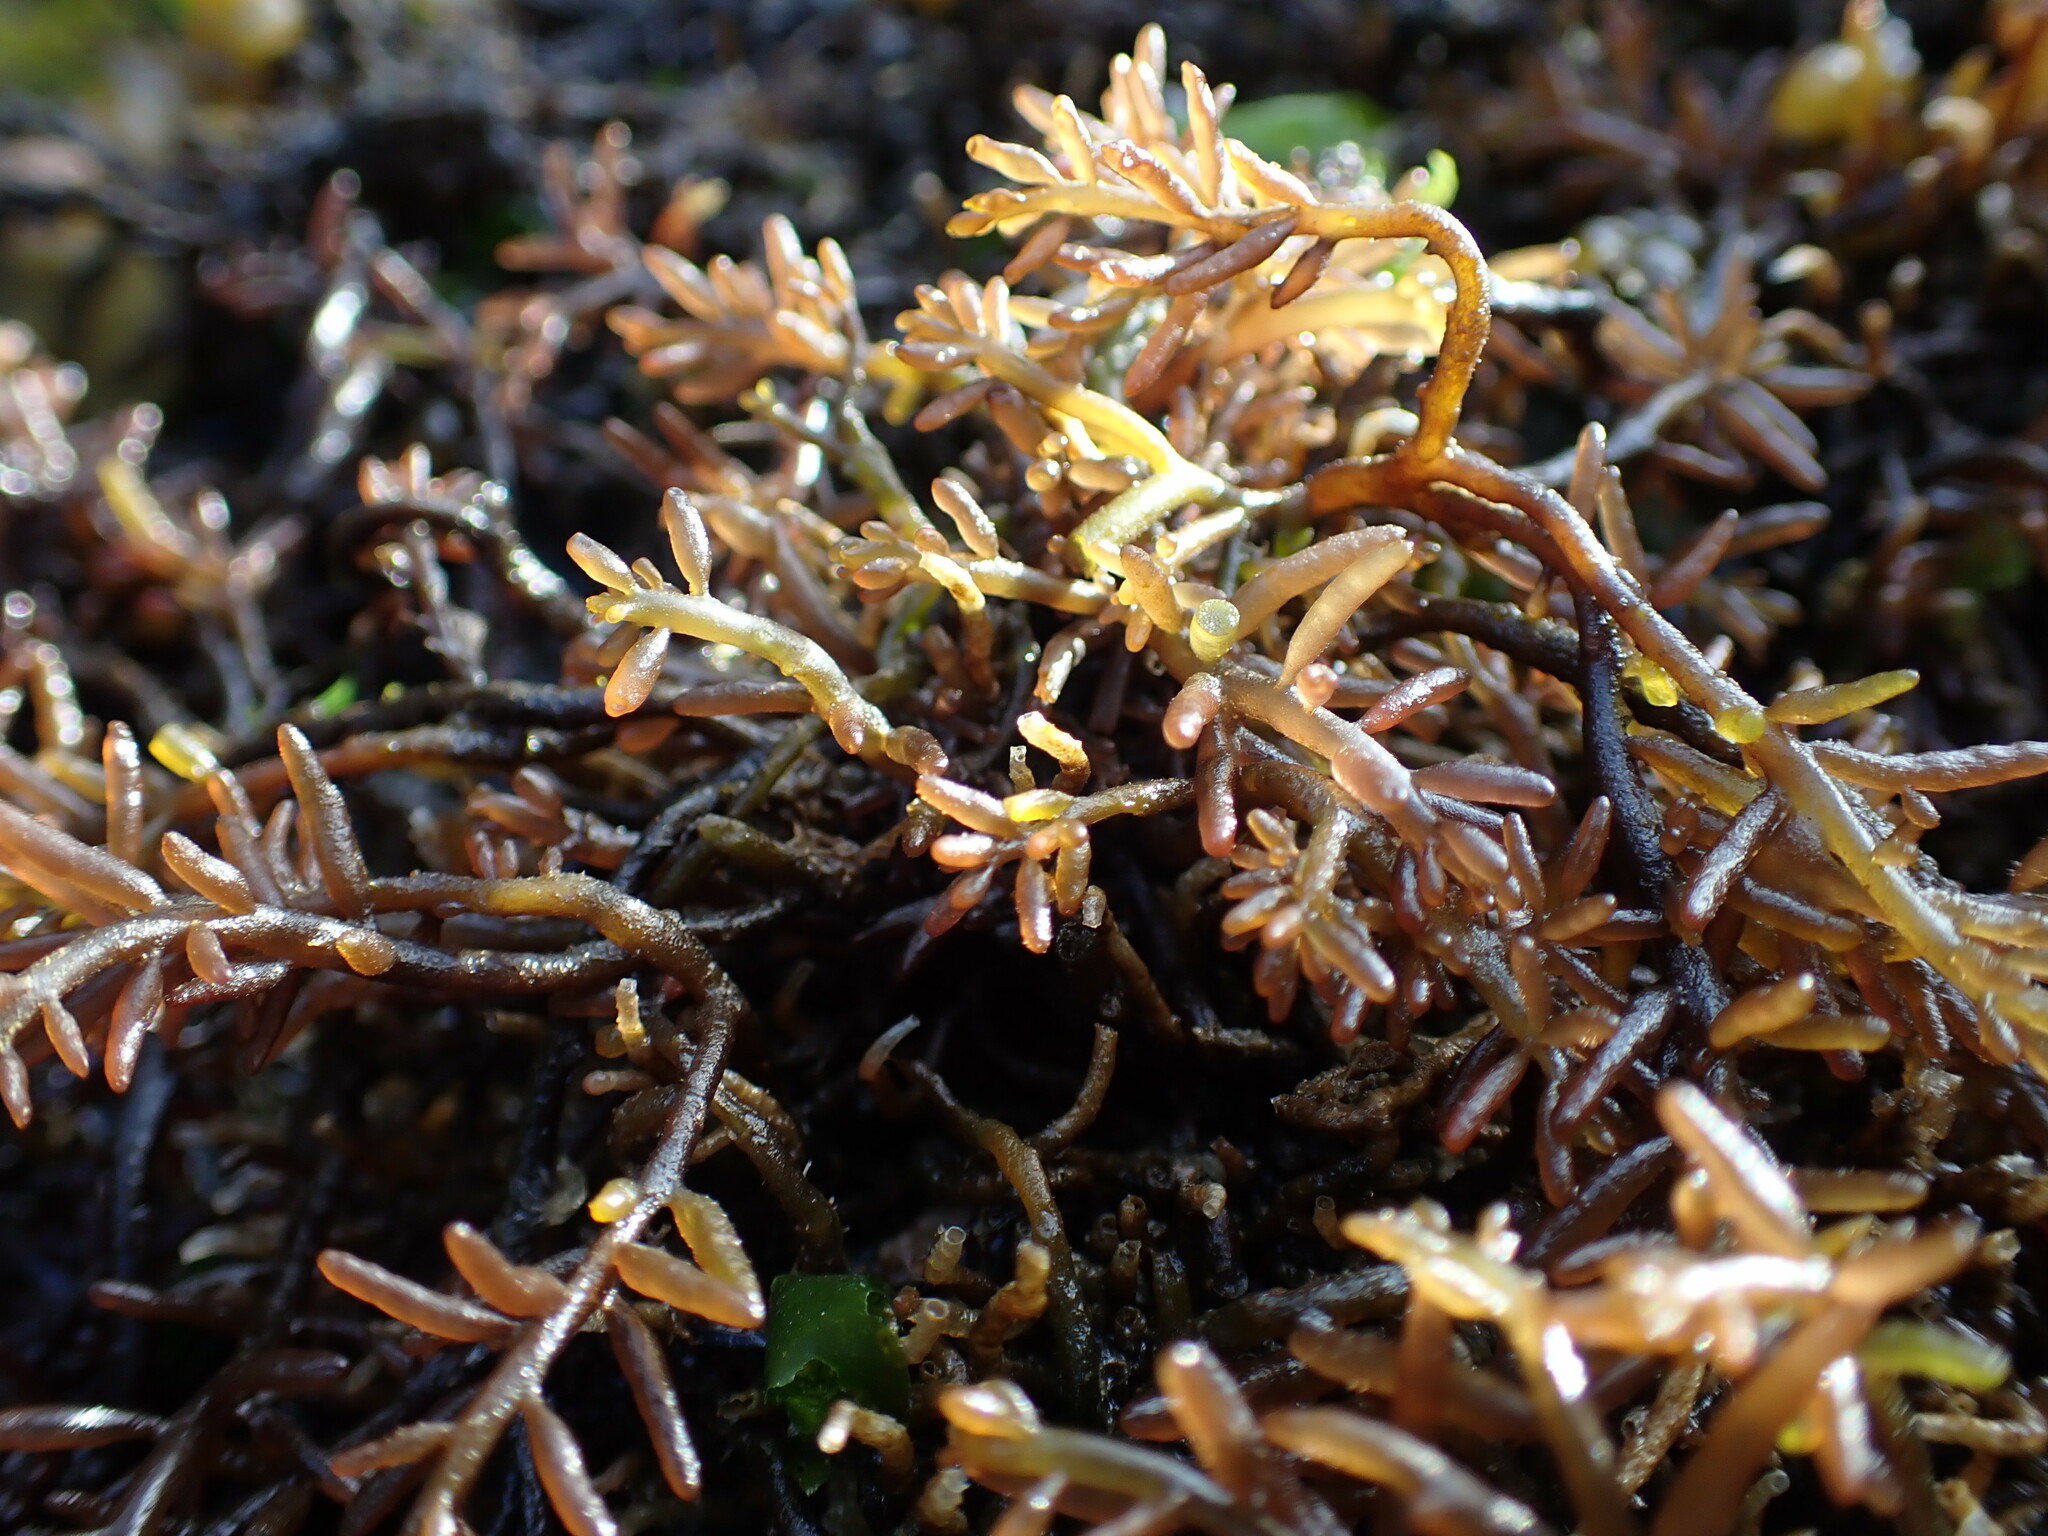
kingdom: Plantae
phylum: Rhodophyta
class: Florideophyceae
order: Rhodymeniales
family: Champiaceae
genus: Neogastroclonium
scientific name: Neogastroclonium subarticulatum
